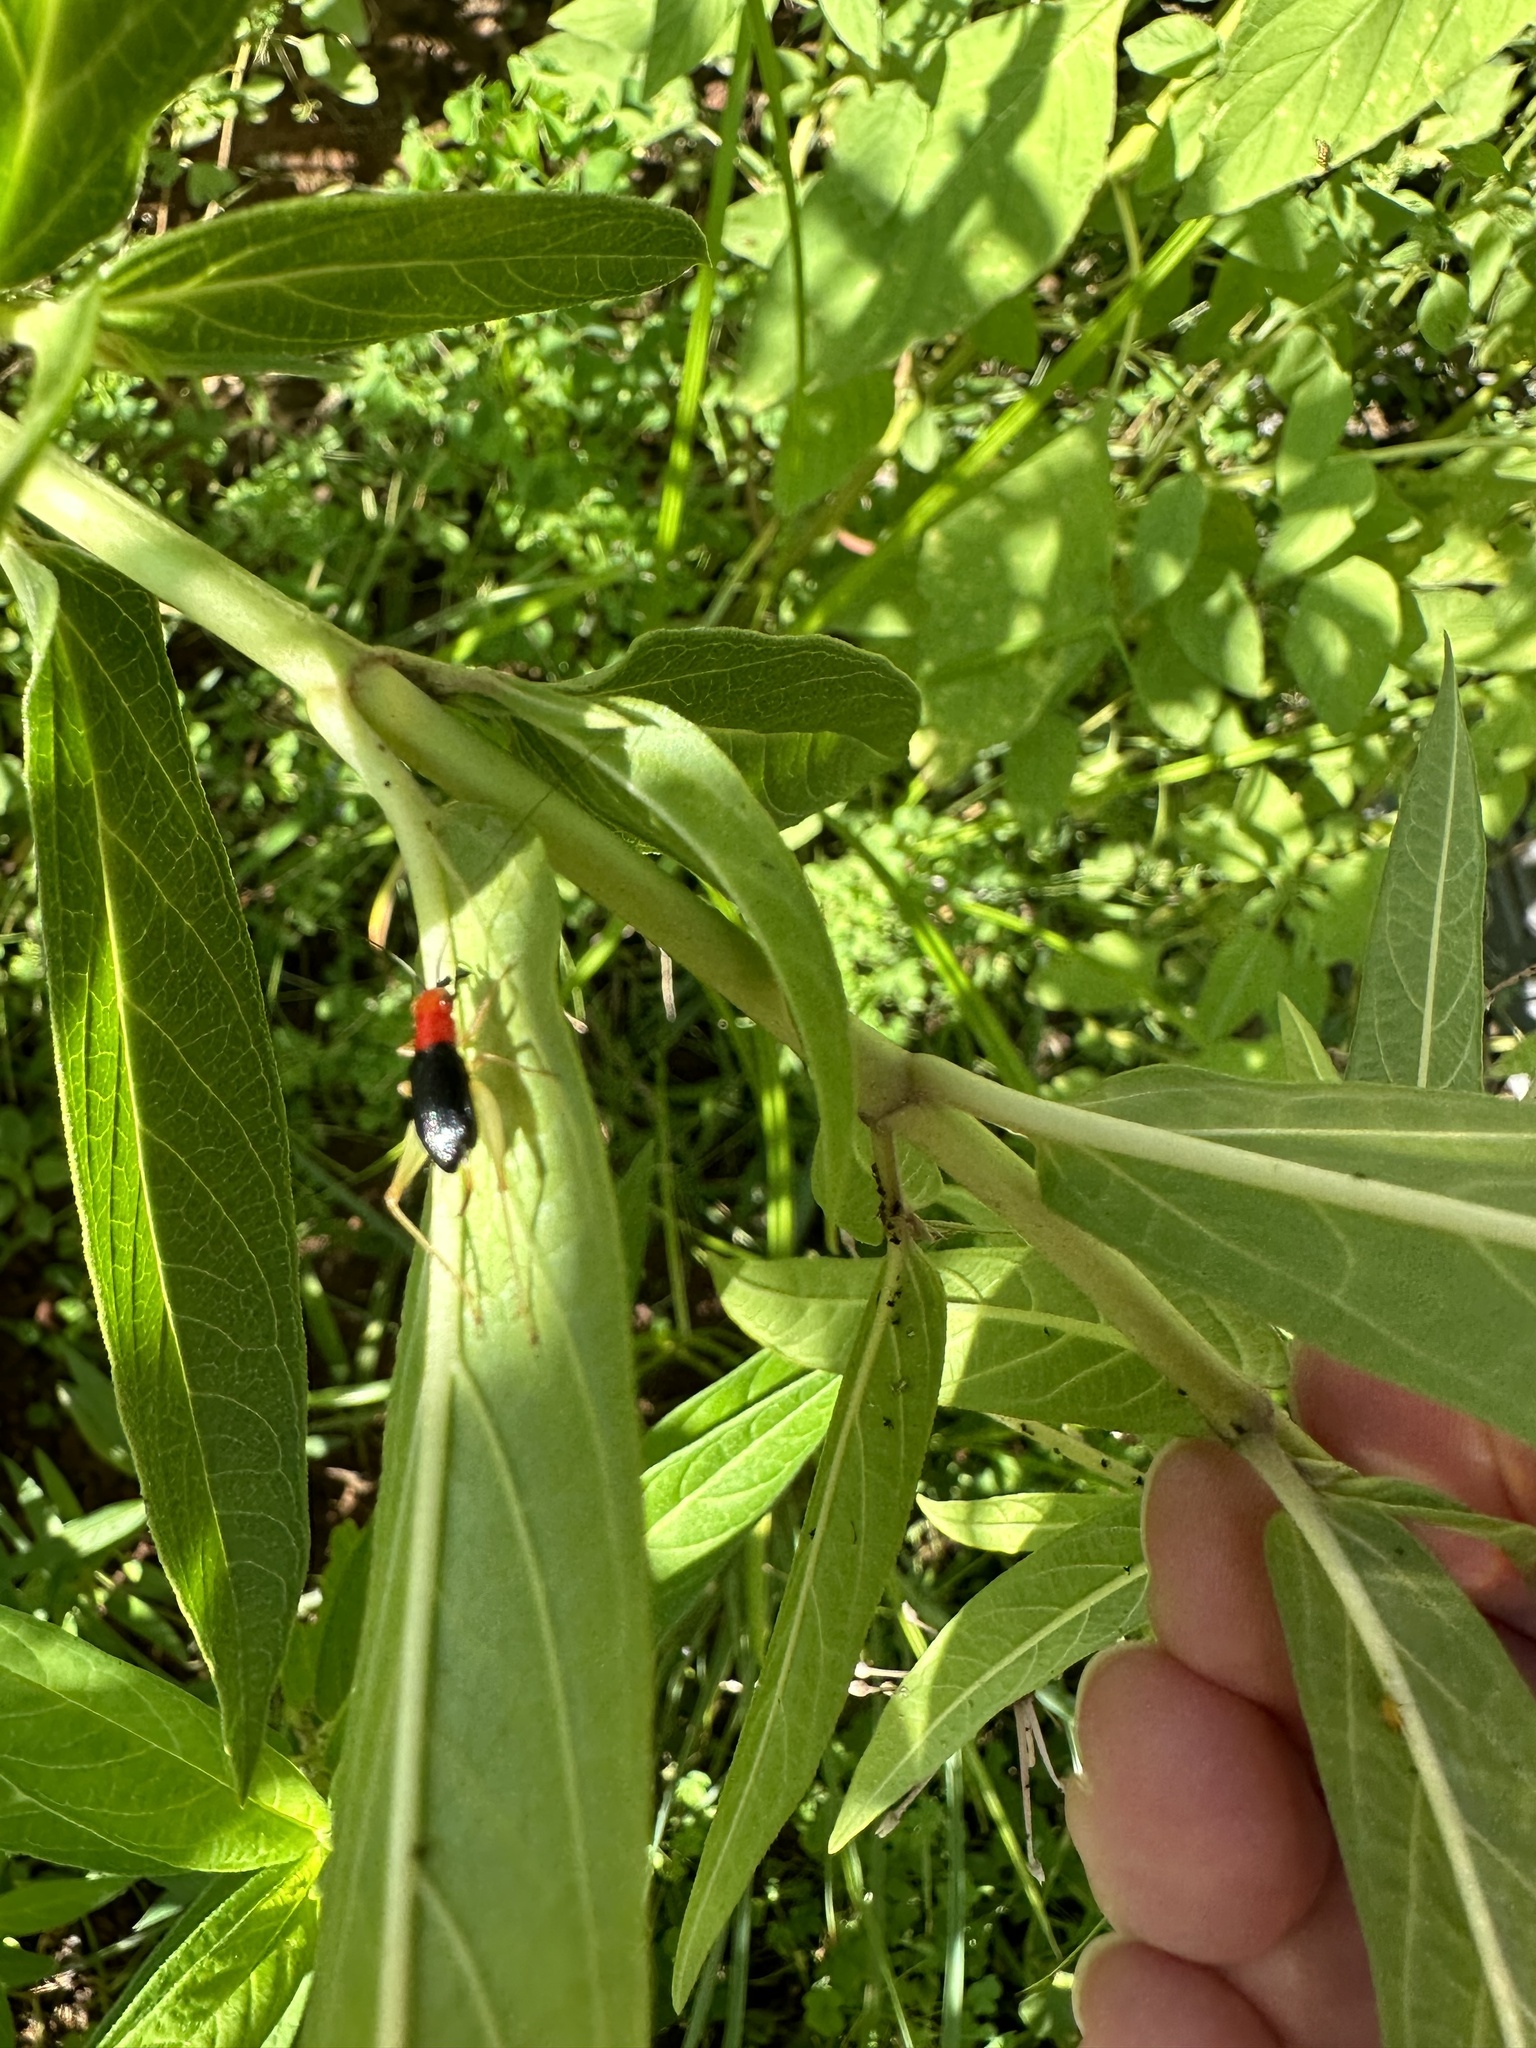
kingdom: Animalia
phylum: Arthropoda
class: Insecta
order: Orthoptera
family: Trigonidiidae
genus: Phyllopalpus
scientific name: Phyllopalpus pulchellus
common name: Handsome trig
